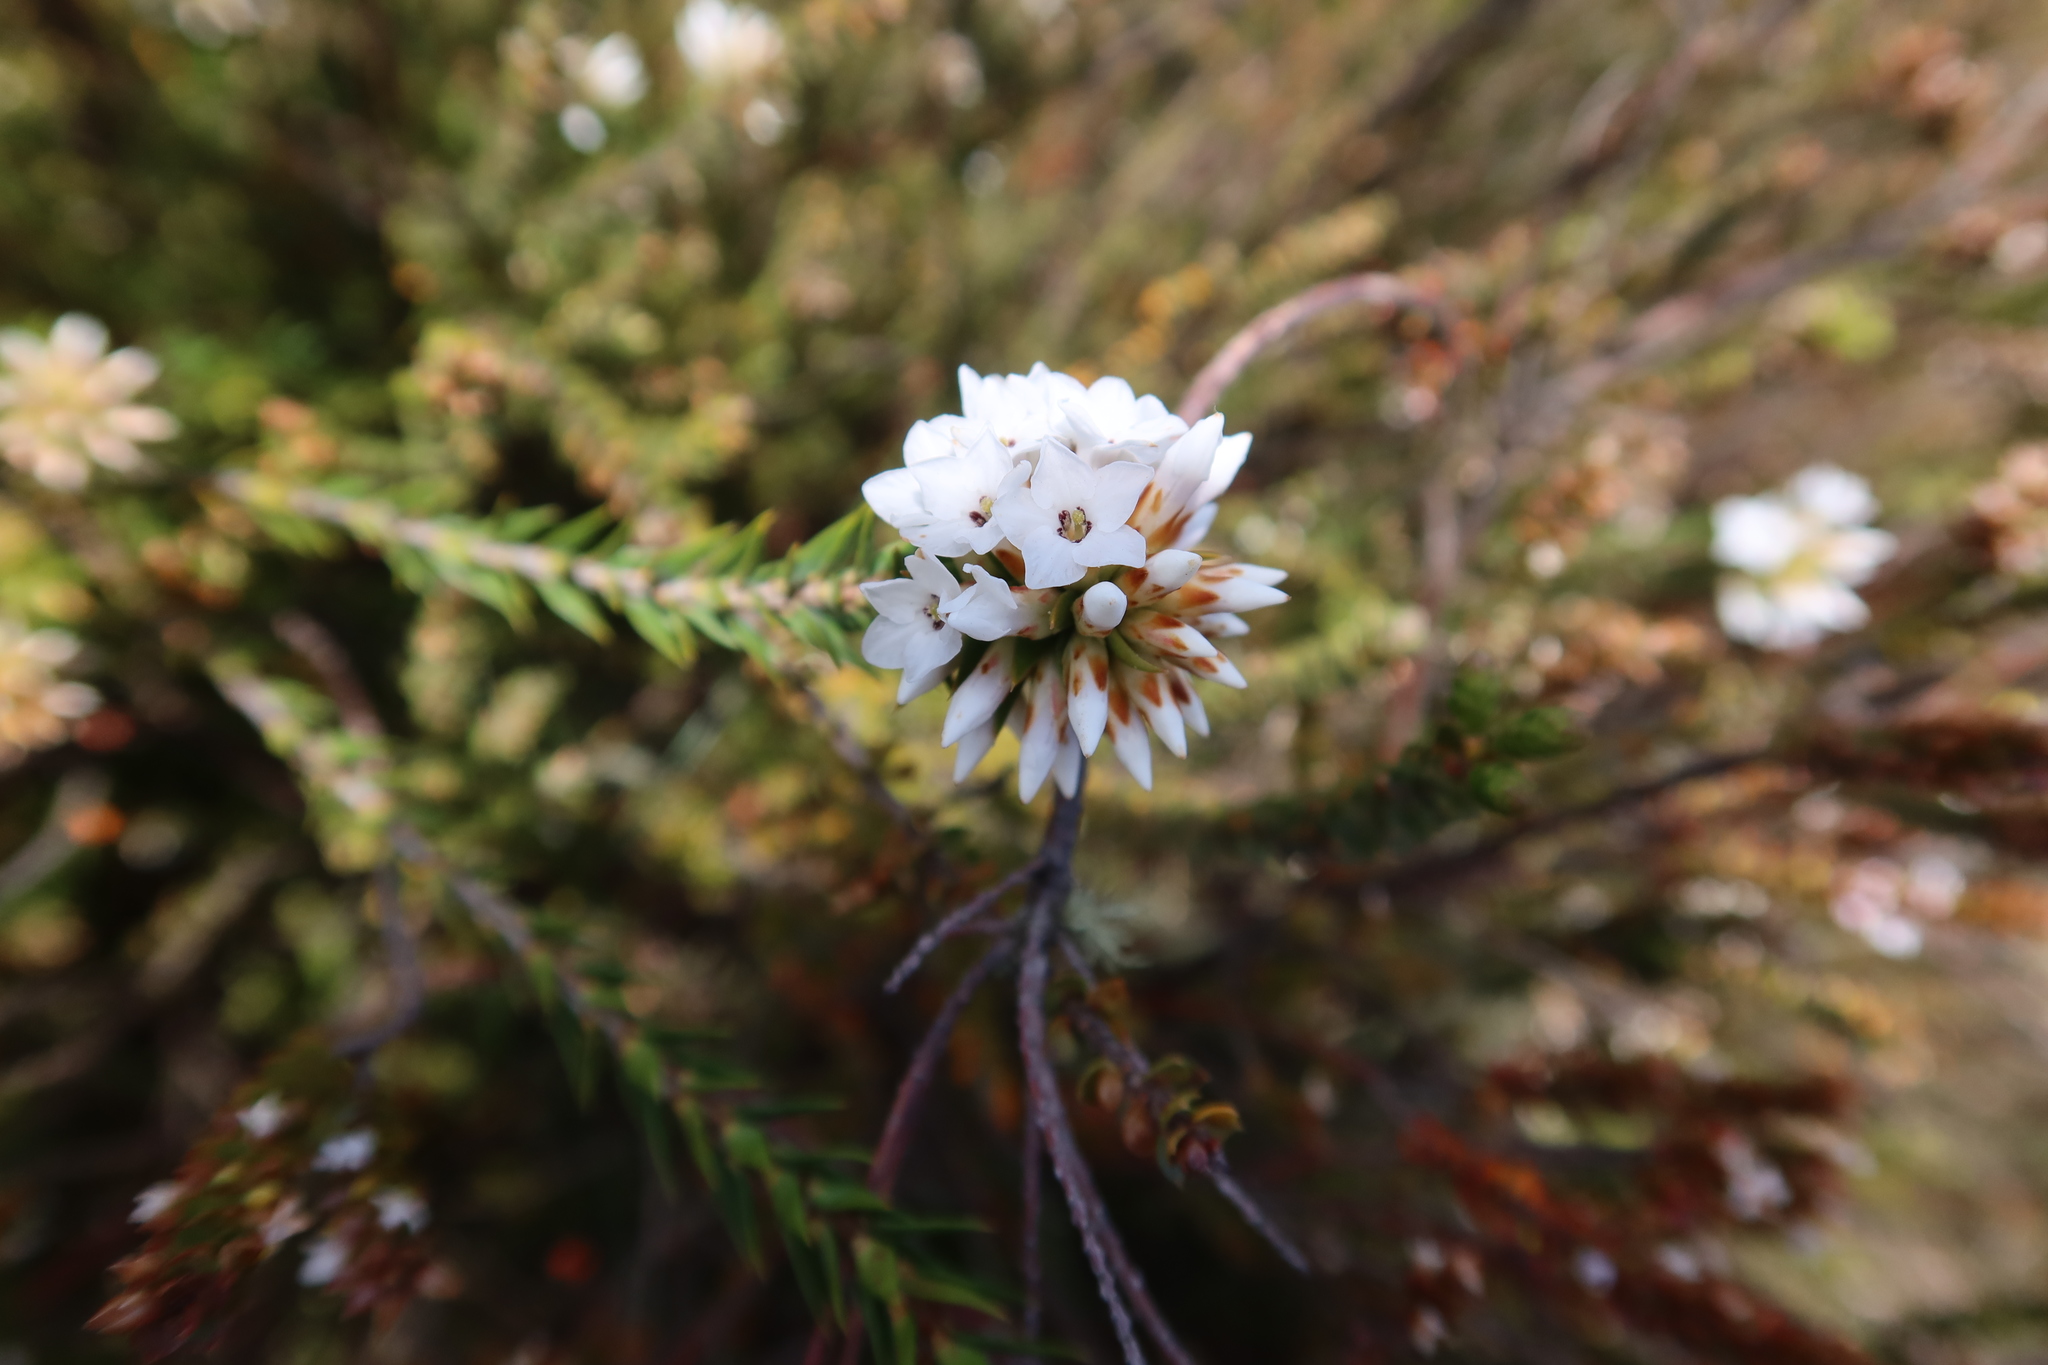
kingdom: Plantae
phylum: Tracheophyta
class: Magnoliopsida
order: Ericales
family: Ericaceae
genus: Epacris
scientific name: Epacris paludosa
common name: Swamp-heath
